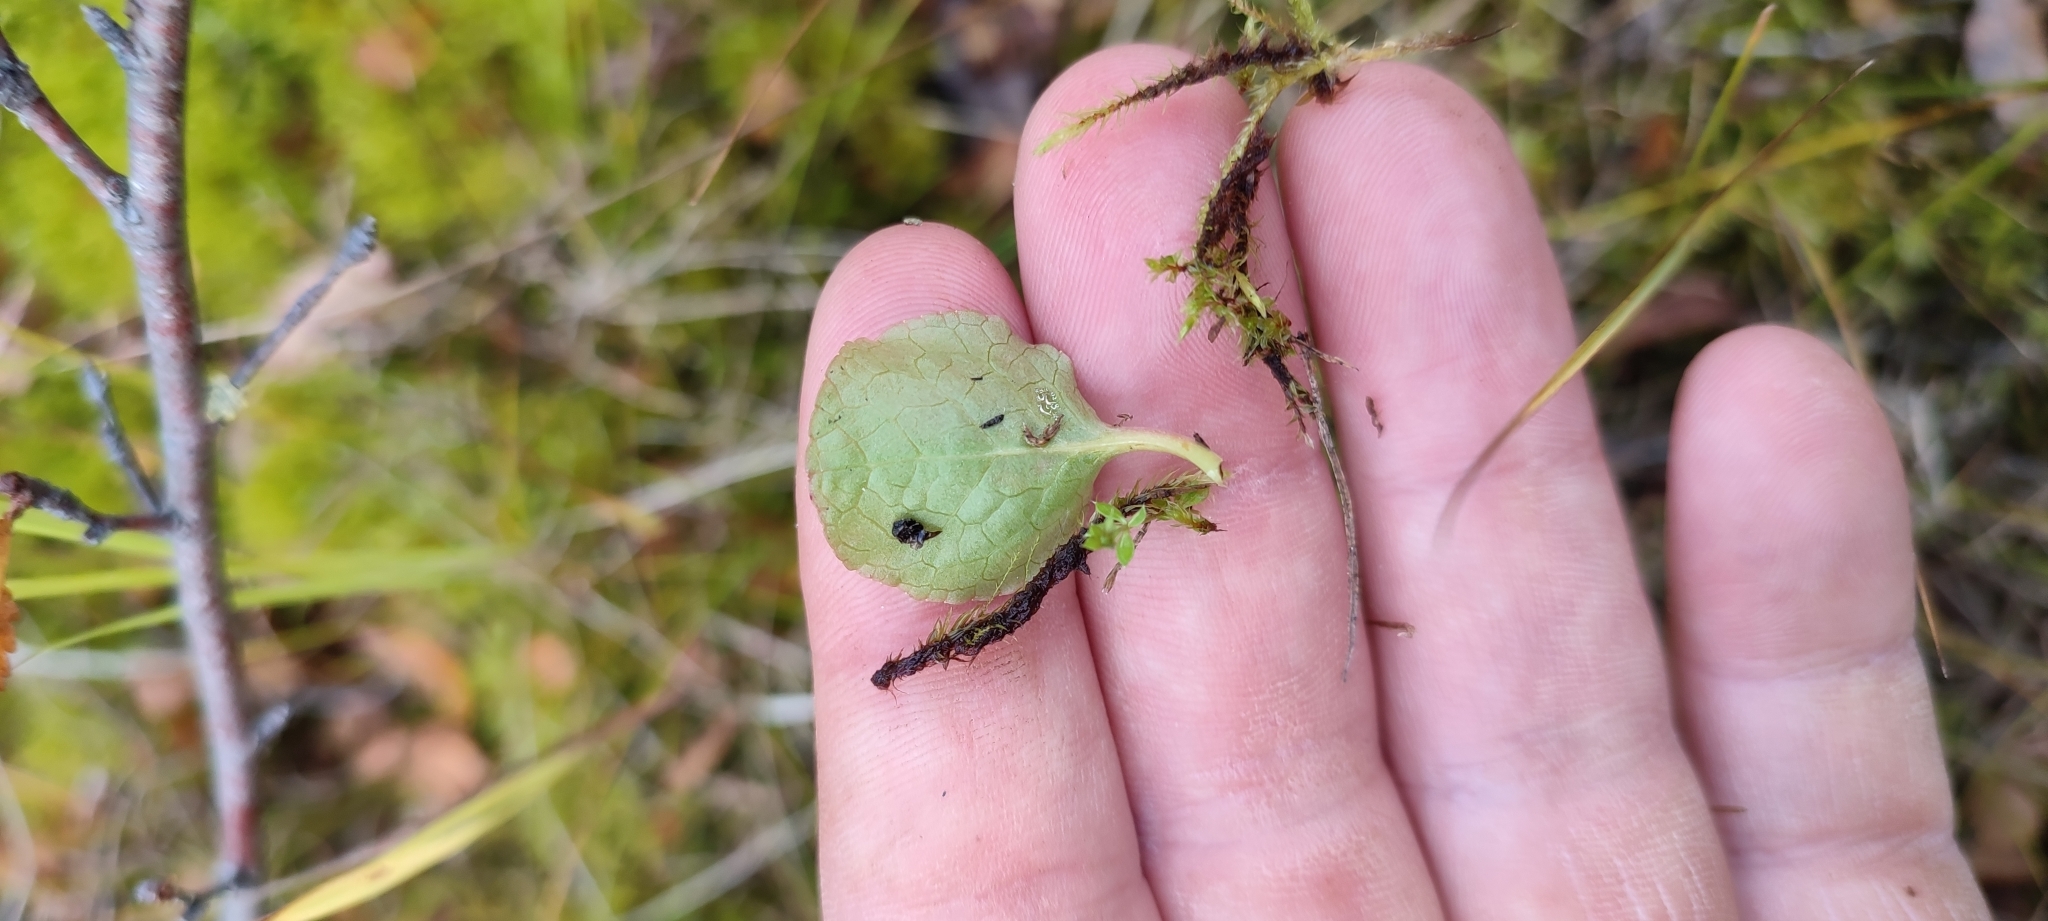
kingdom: Plantae
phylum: Tracheophyta
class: Magnoliopsida
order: Ericales
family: Ericaceae
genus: Moneses
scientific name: Moneses uniflora
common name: One-flowered wintergreen
